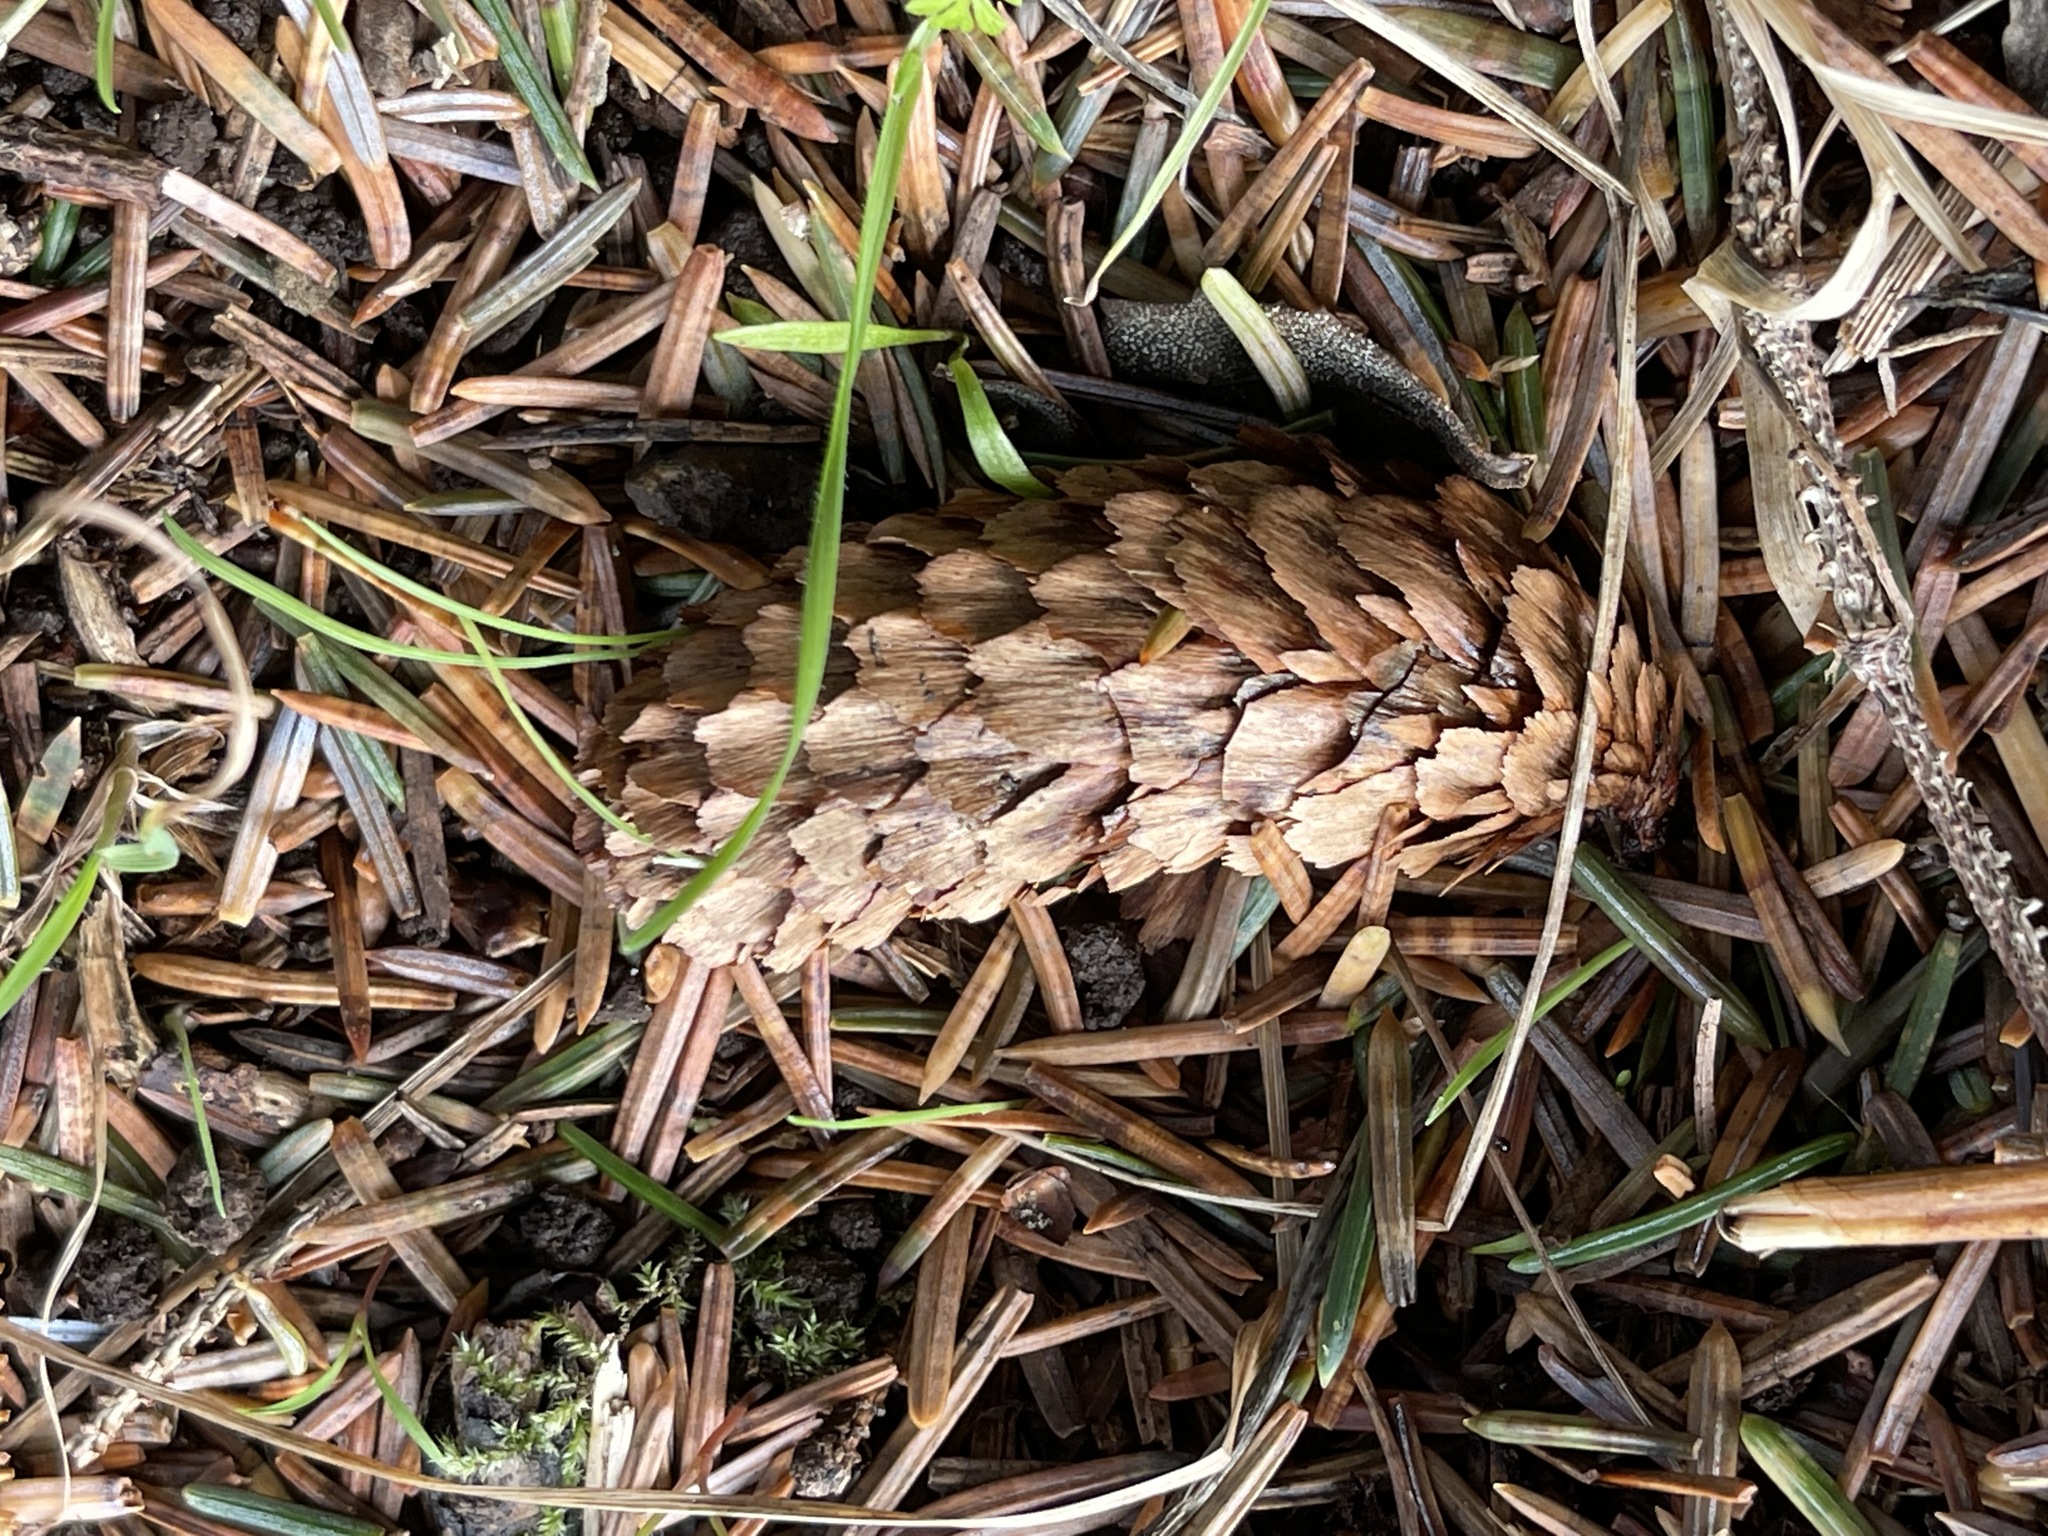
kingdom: Plantae
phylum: Tracheophyta
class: Pinopsida
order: Pinales
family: Pinaceae
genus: Picea
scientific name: Picea sitchensis
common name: Sitka spruce
